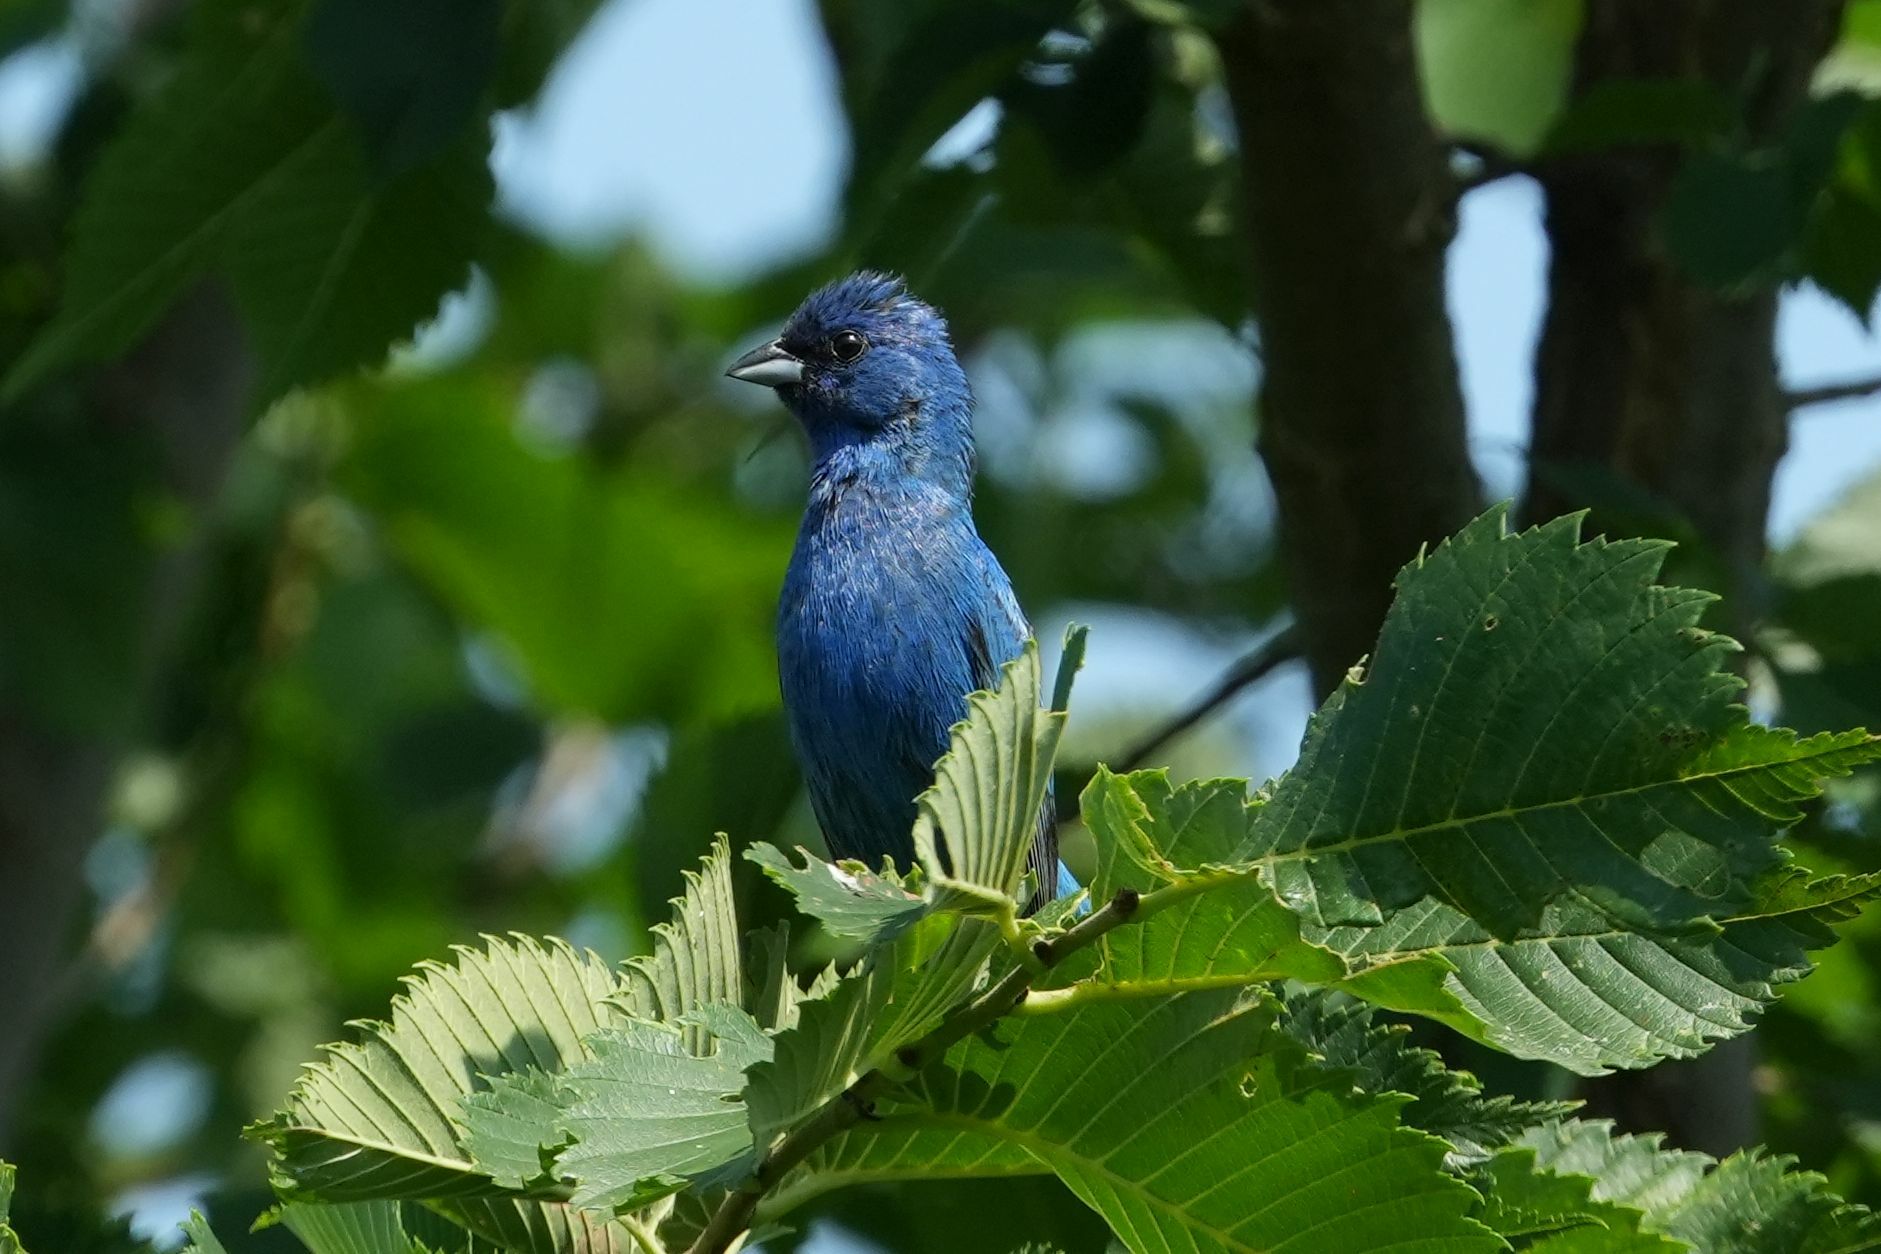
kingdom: Animalia
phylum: Chordata
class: Aves
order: Passeriformes
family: Cardinalidae
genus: Passerina
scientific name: Passerina cyanea
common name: Indigo bunting
